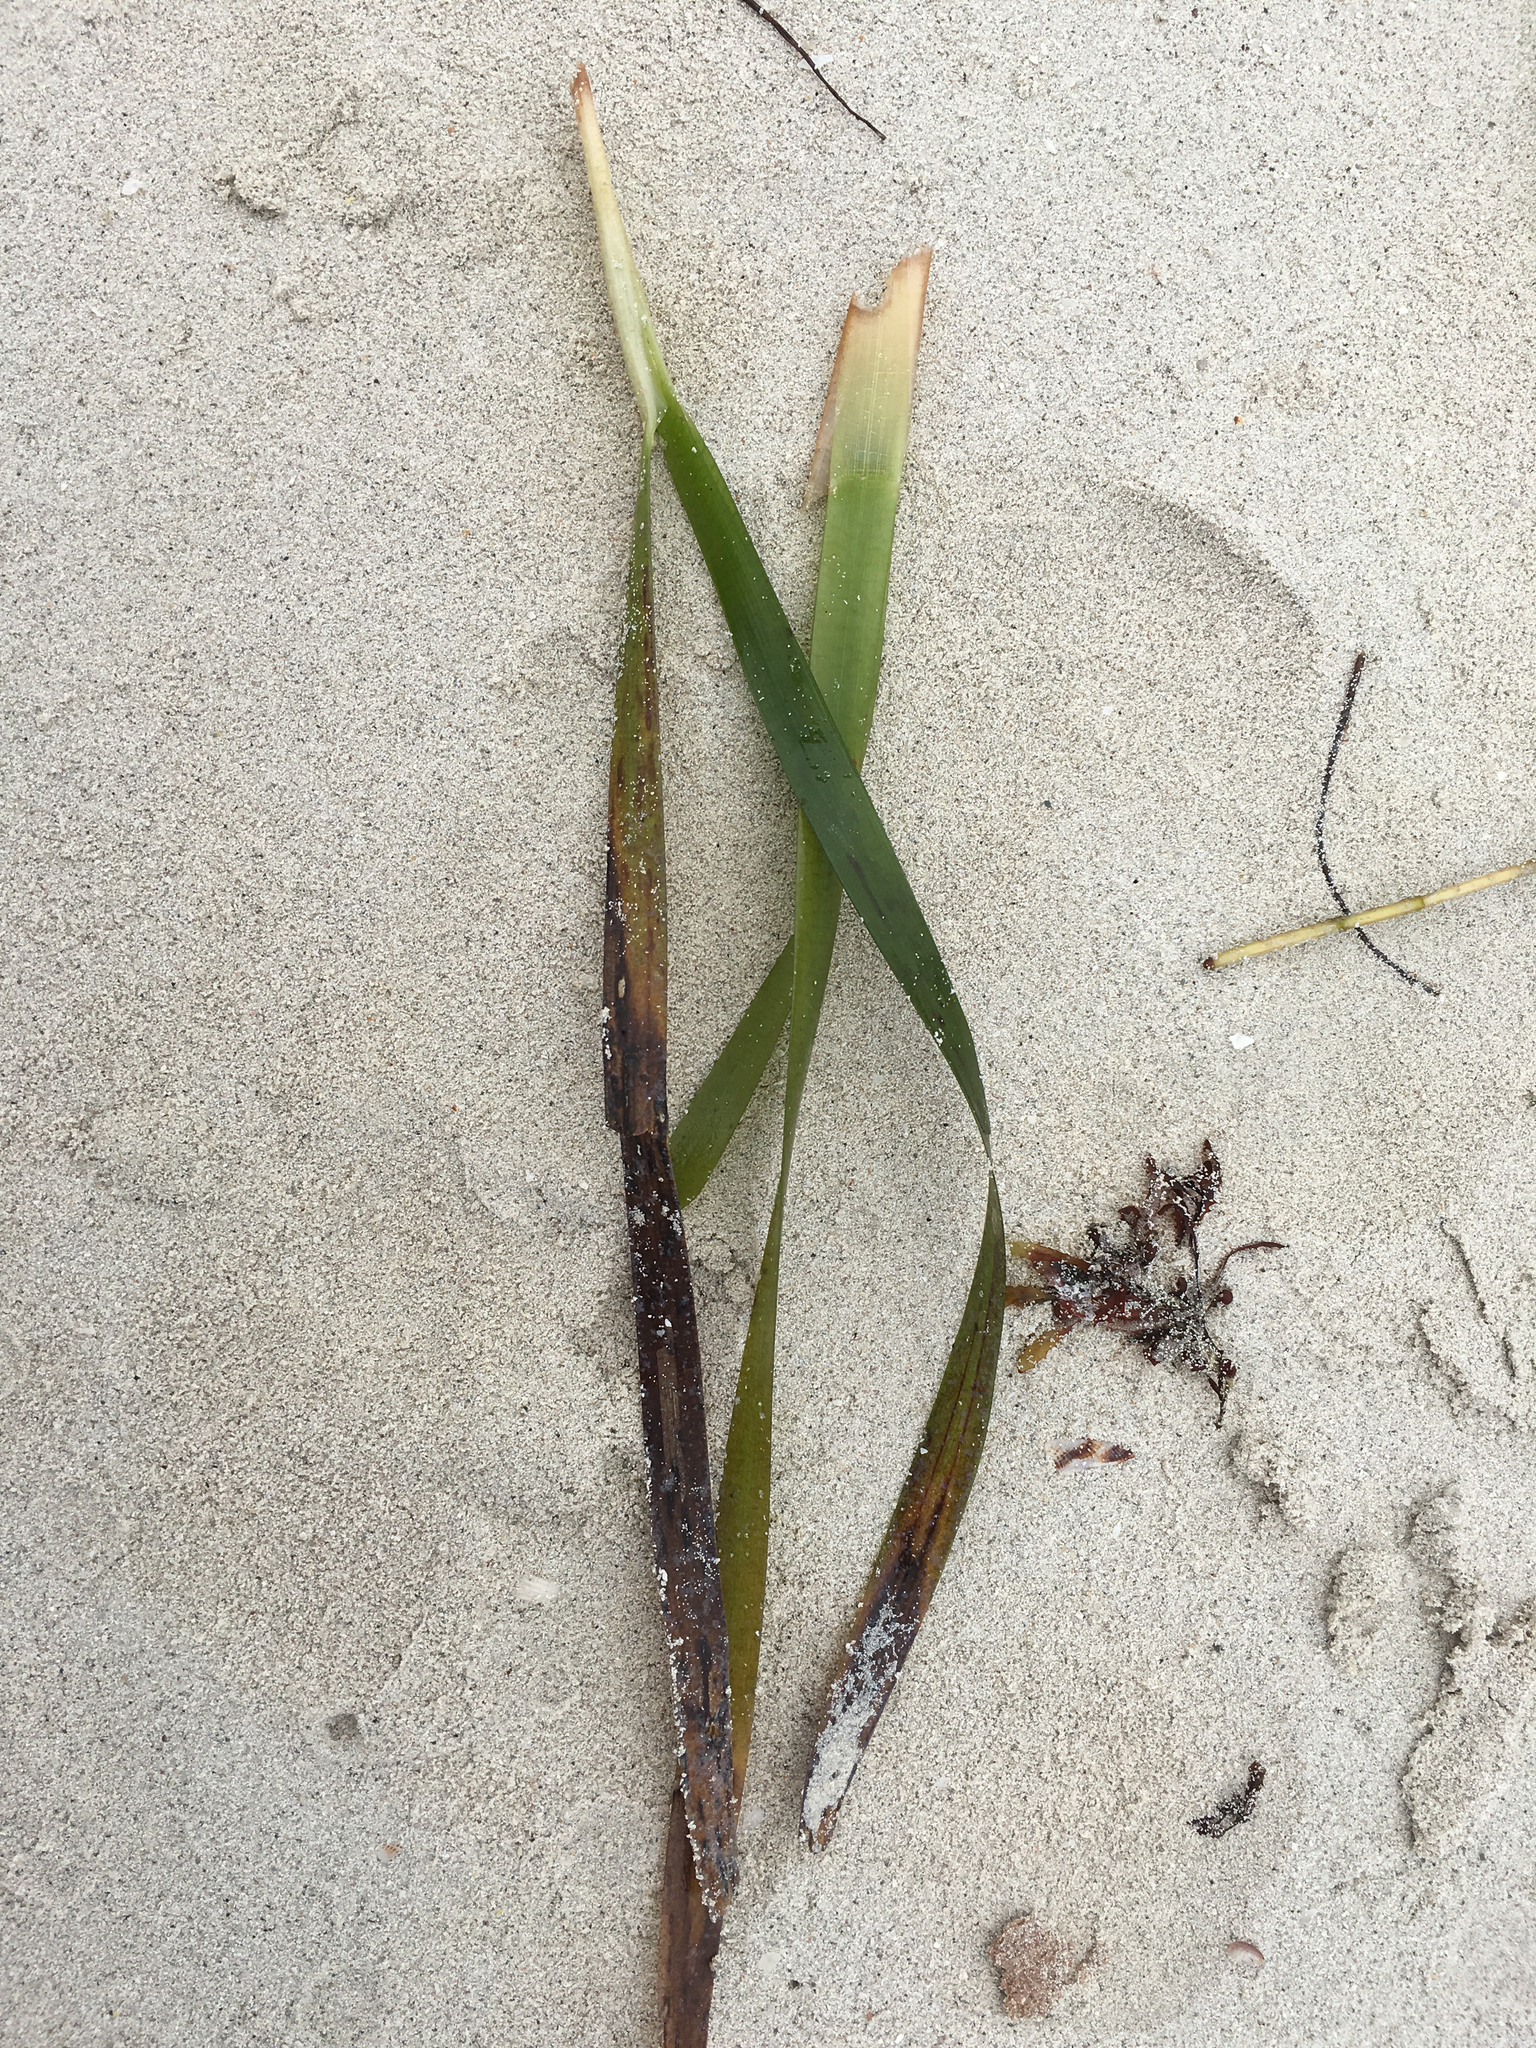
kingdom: Plantae
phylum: Tracheophyta
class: Liliopsida
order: Alismatales
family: Hydrocharitaceae
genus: Thalassia
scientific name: Thalassia testudinum
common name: Species code: tt
